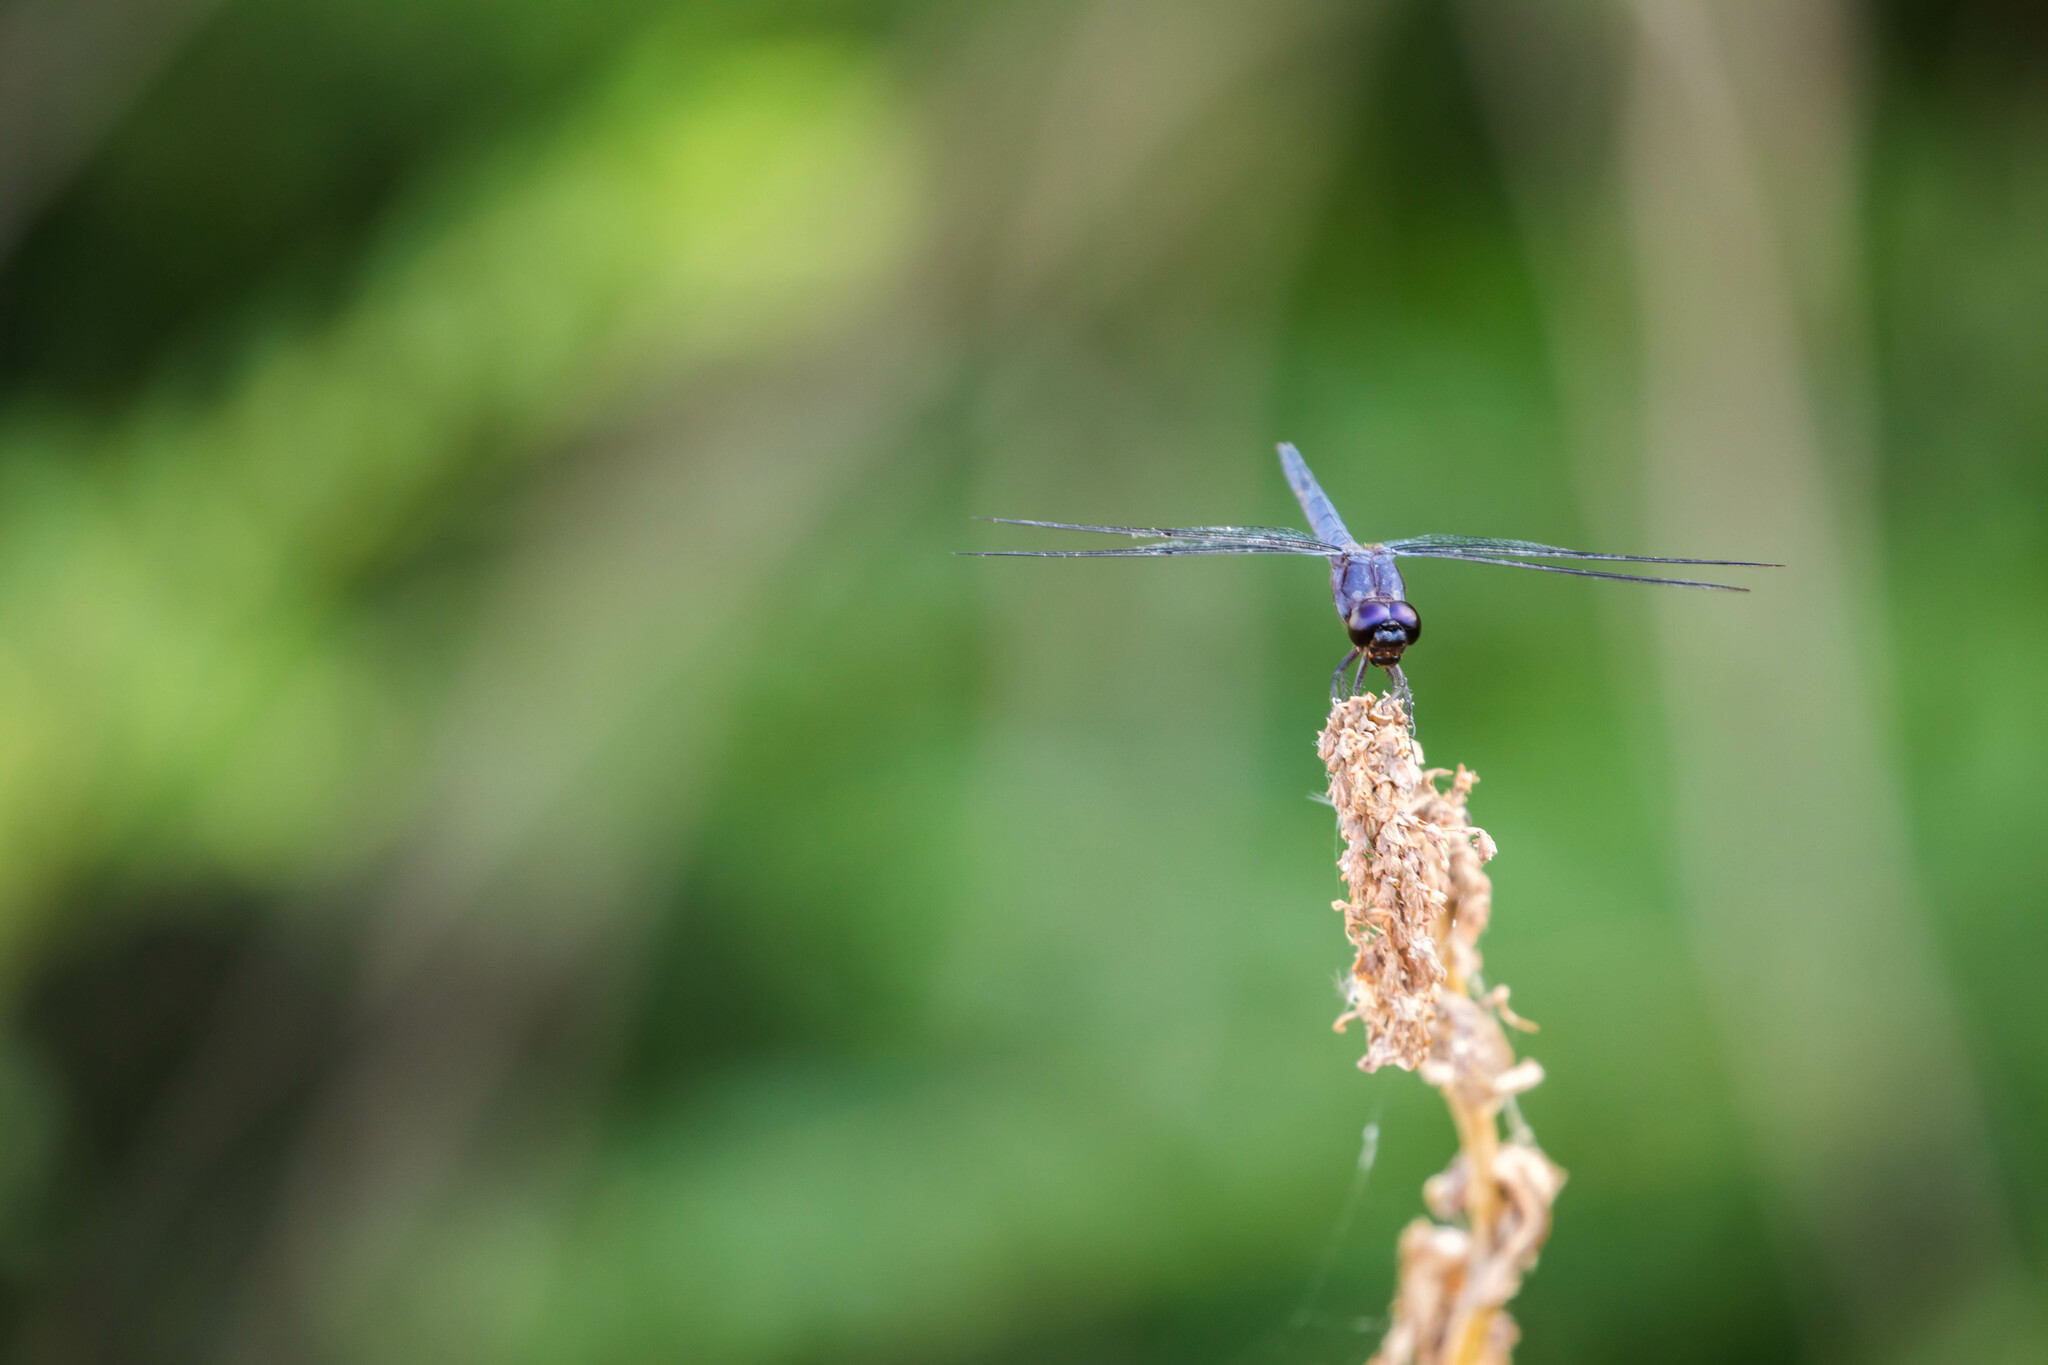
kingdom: Animalia
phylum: Arthropoda
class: Insecta
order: Odonata
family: Libellulidae
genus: Libellula
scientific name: Libellula incesta
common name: Slaty skimmer
